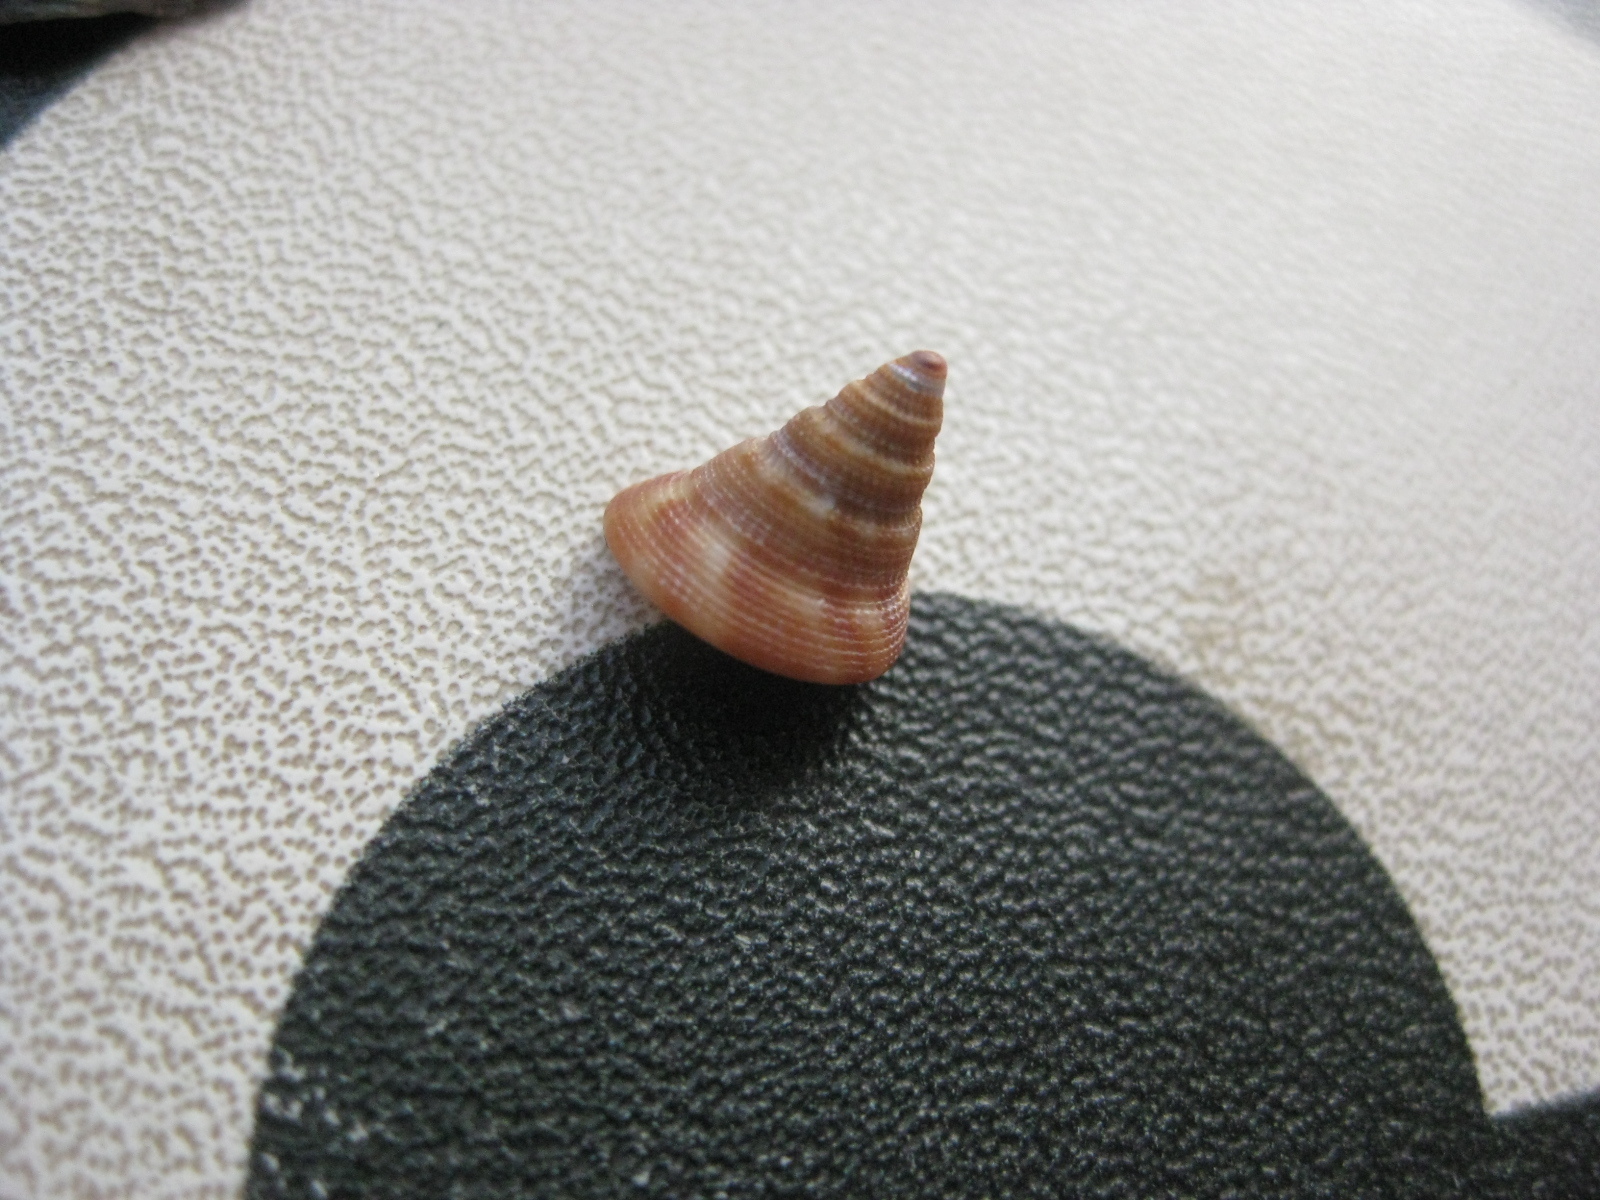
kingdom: Animalia
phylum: Mollusca
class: Gastropoda
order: Trochida
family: Calliostomatidae
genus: Maurea
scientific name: Maurea tigris
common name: Tiger maurea
